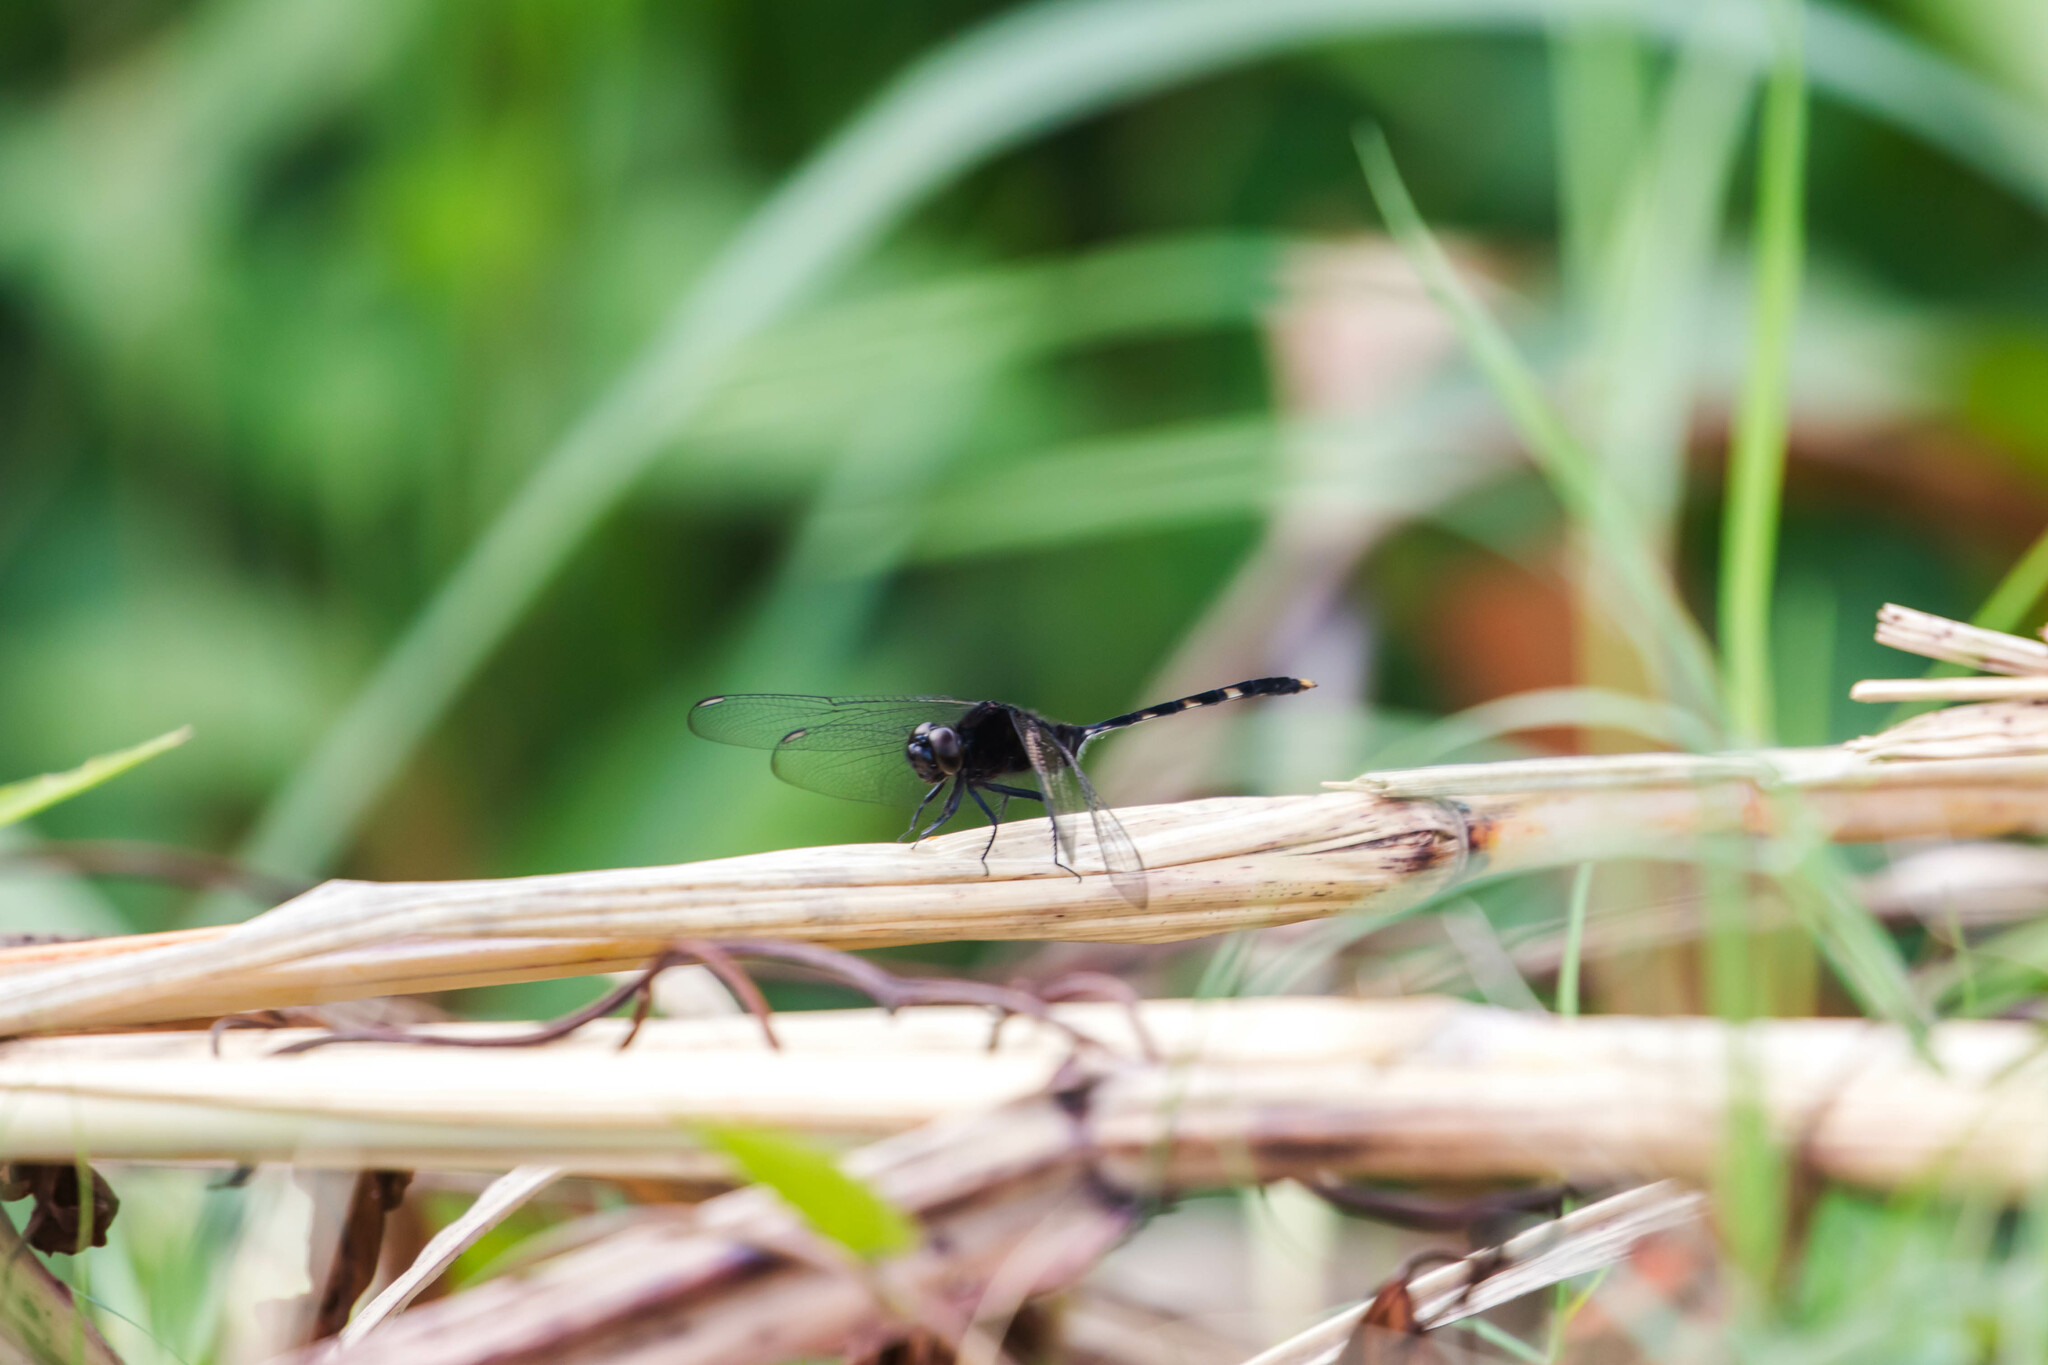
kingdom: Animalia
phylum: Arthropoda
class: Insecta
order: Odonata
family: Libellulidae
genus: Erythemis
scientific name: Erythemis plebeja
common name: Pin-tailed pondhawk
